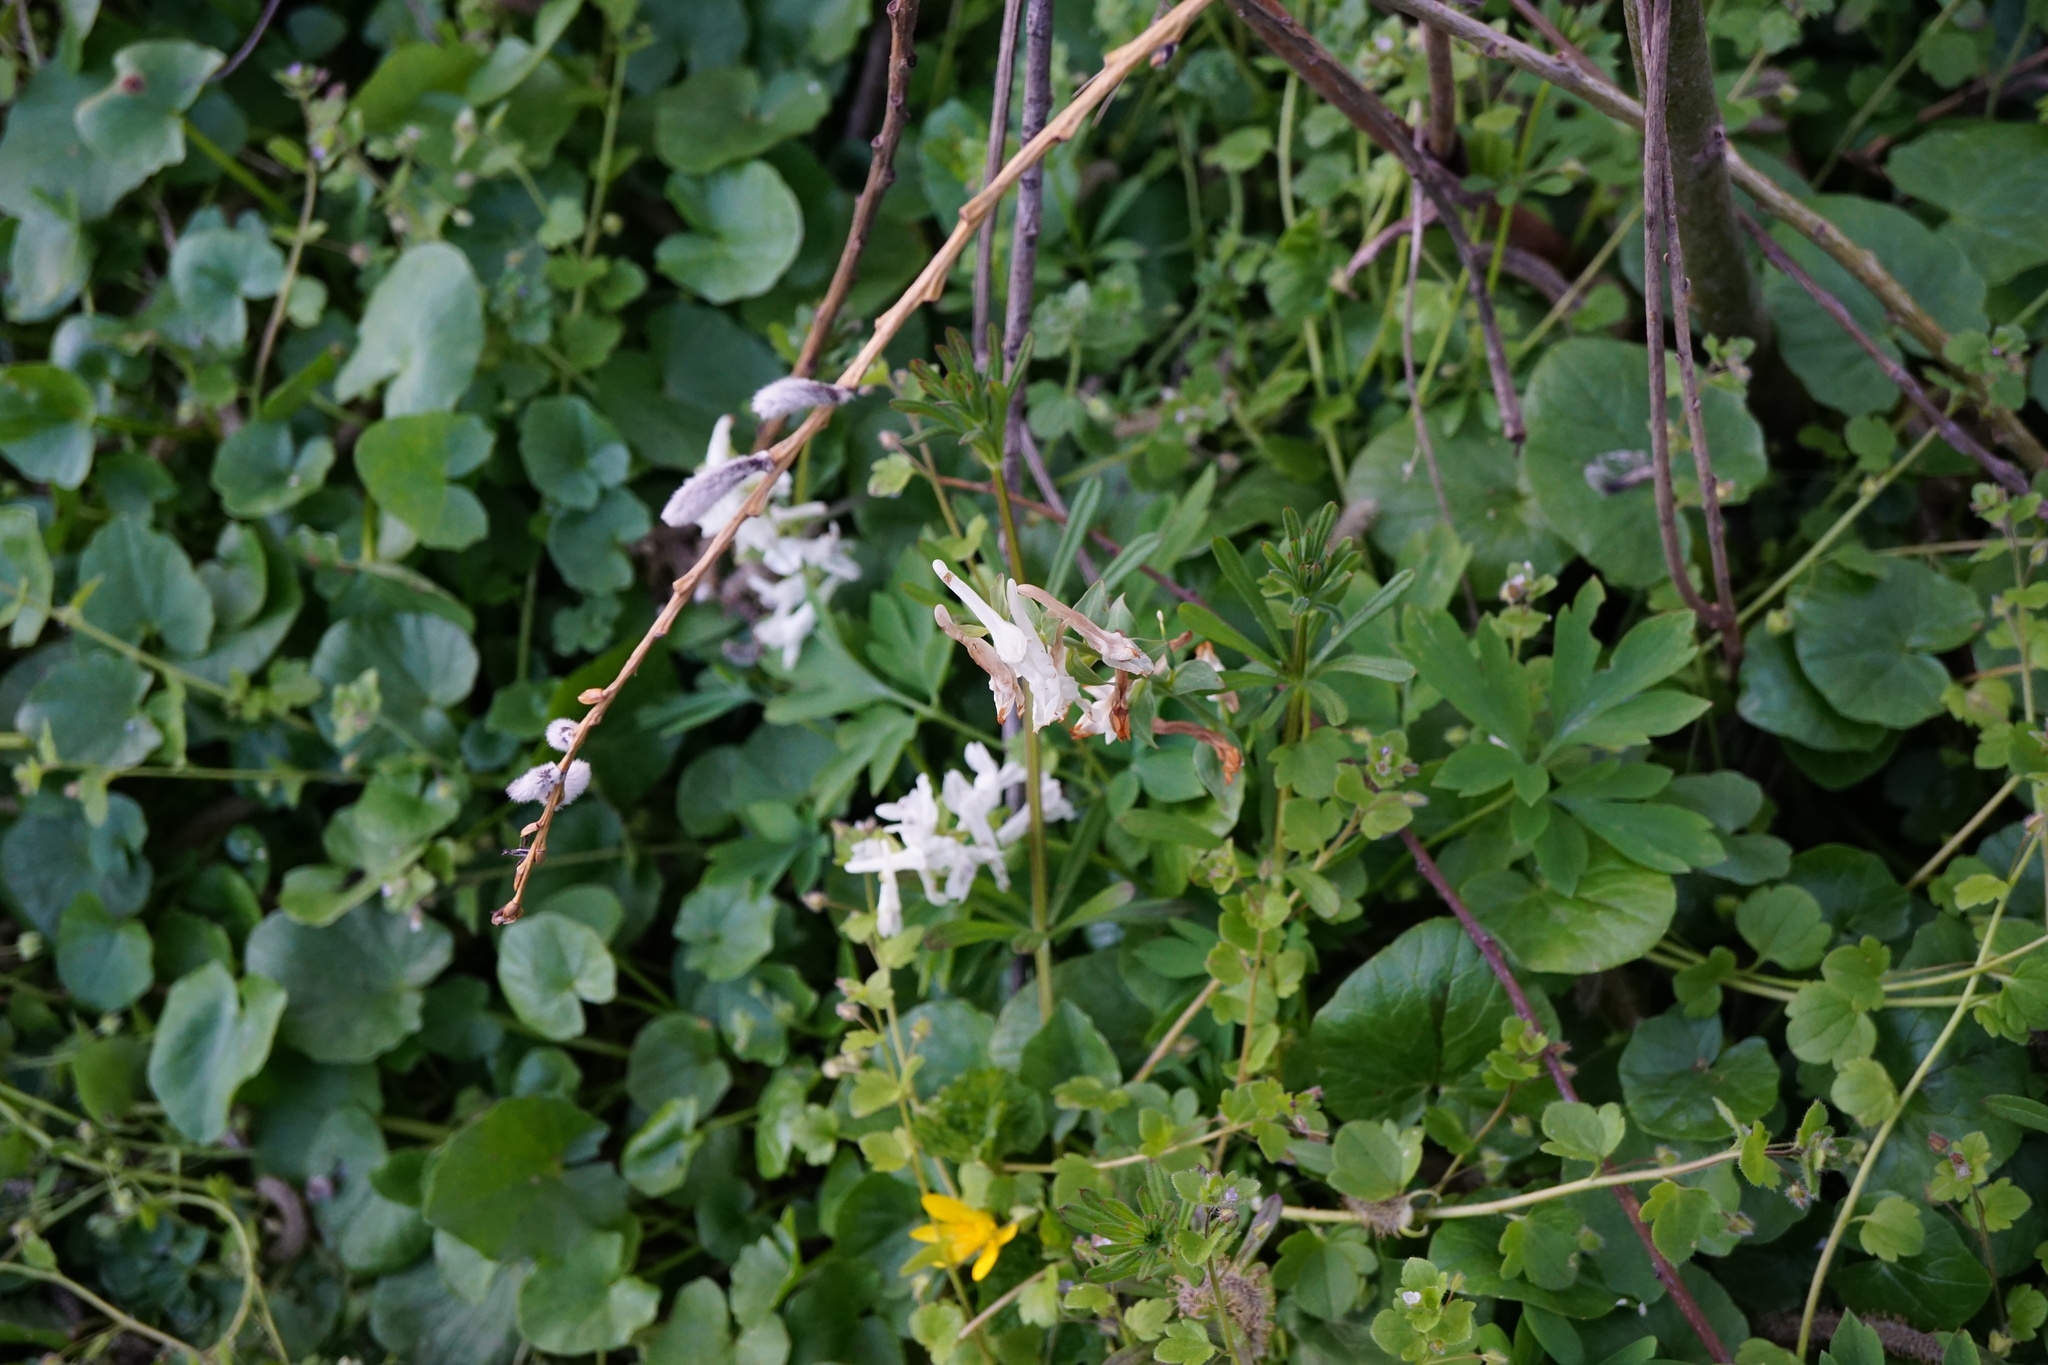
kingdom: Plantae
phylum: Tracheophyta
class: Magnoliopsida
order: Ranunculales
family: Papaveraceae
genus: Corydalis
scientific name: Corydalis cava
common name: Hollowroot
